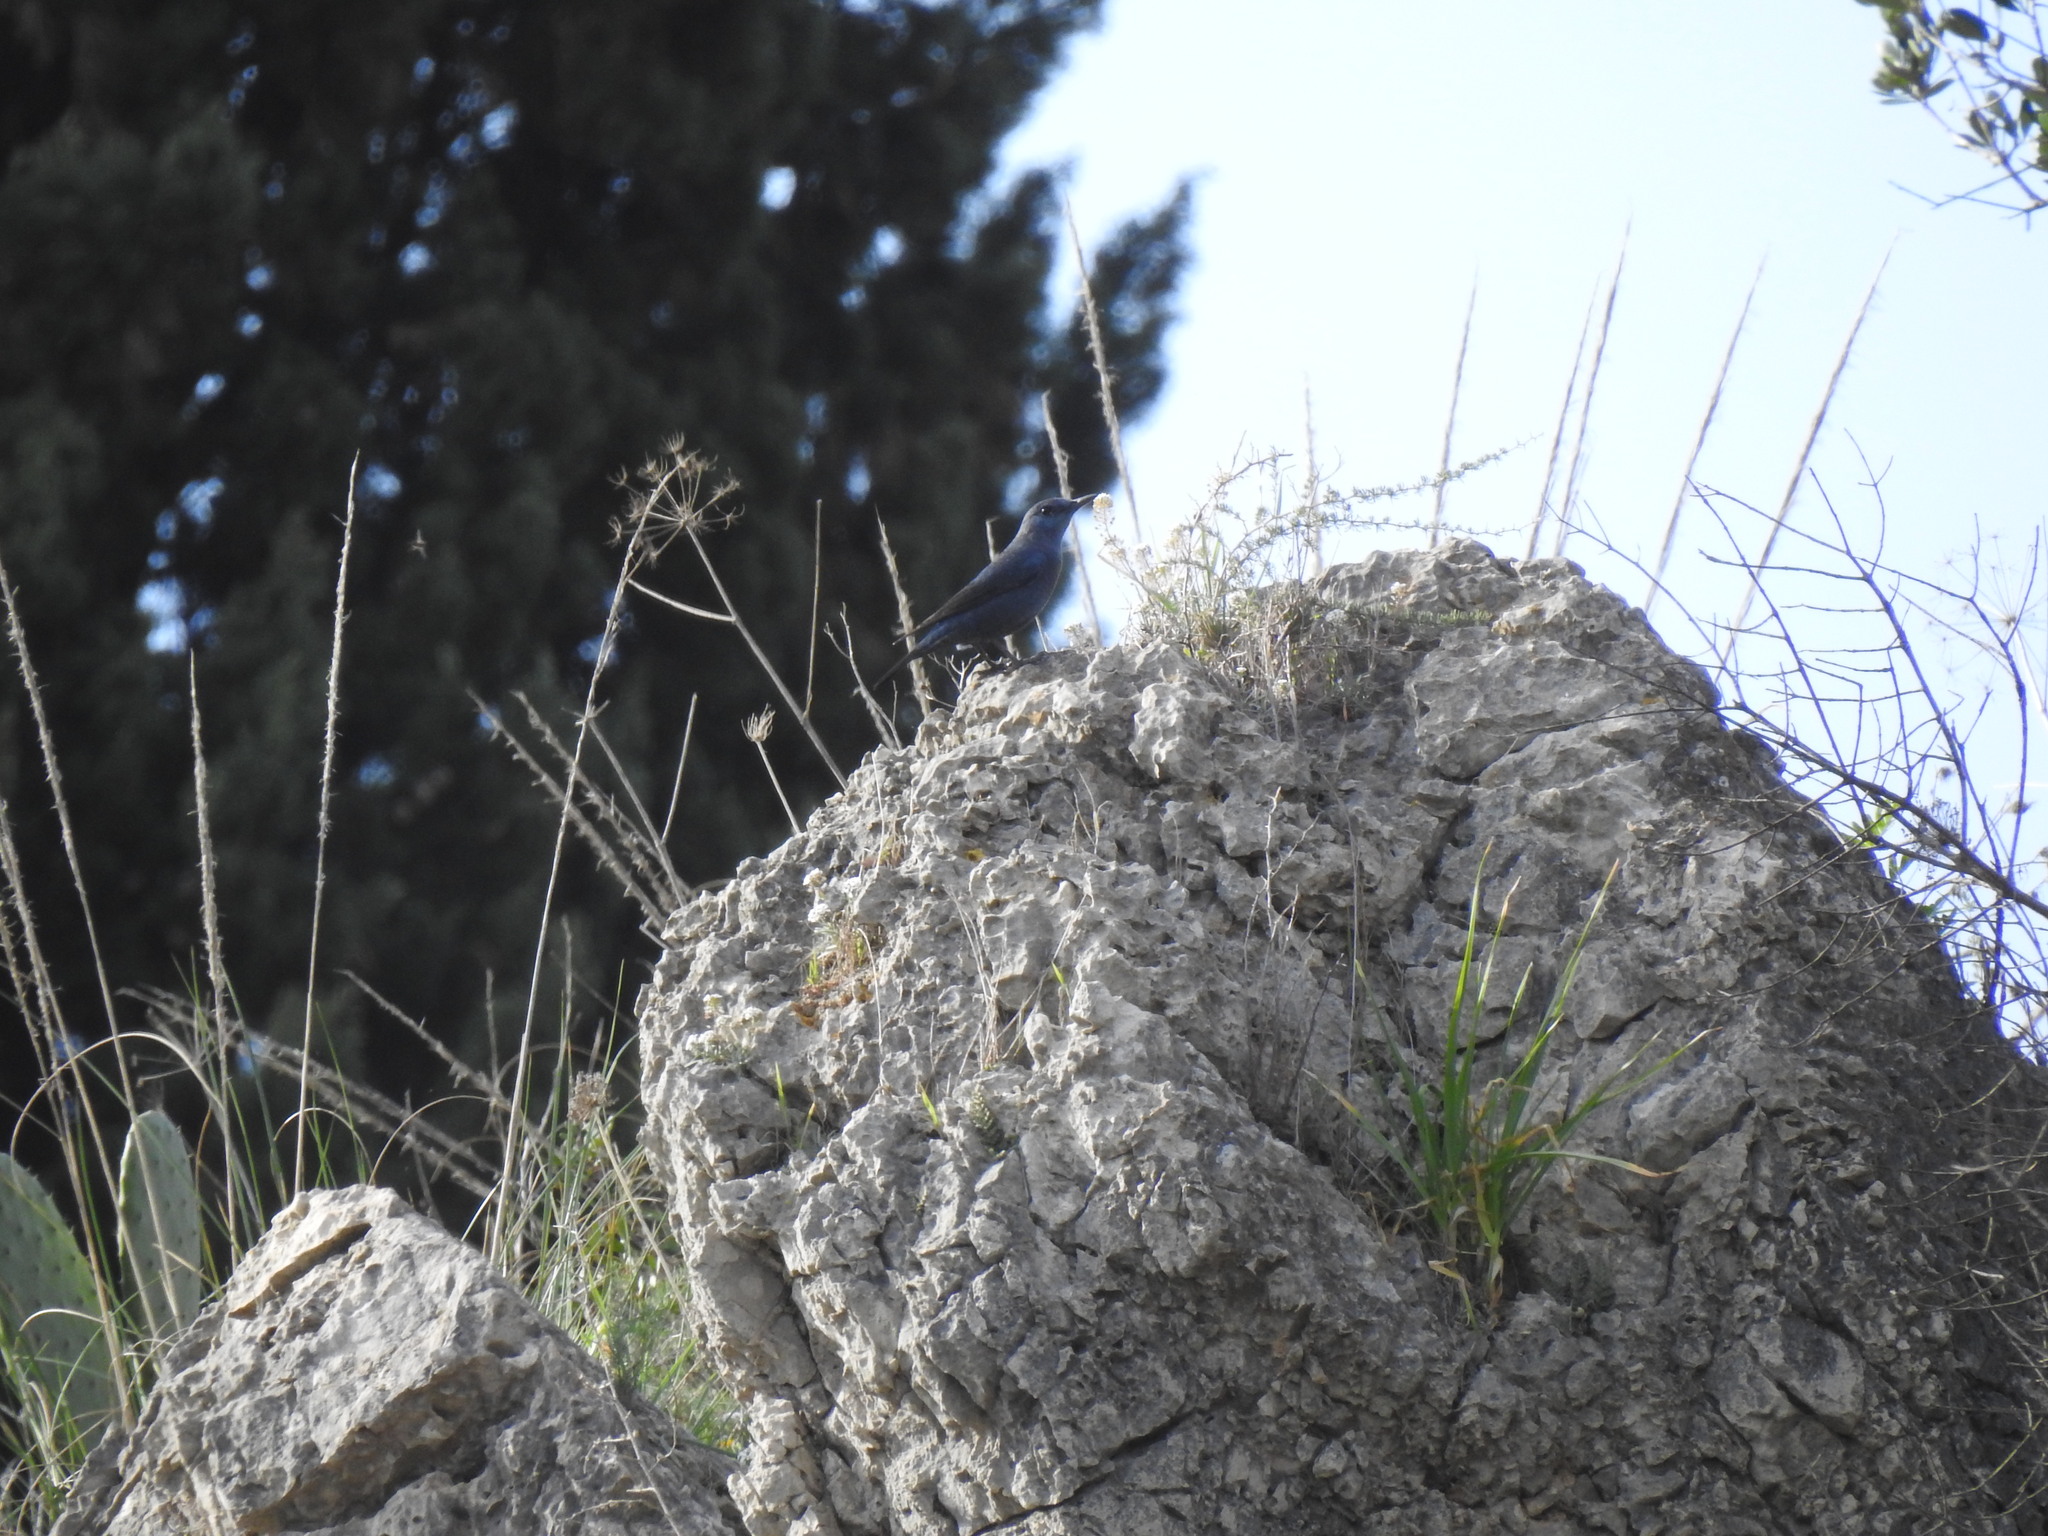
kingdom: Animalia
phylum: Chordata
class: Aves
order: Passeriformes
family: Muscicapidae
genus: Monticola
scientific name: Monticola solitarius
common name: Blue rock thrush
